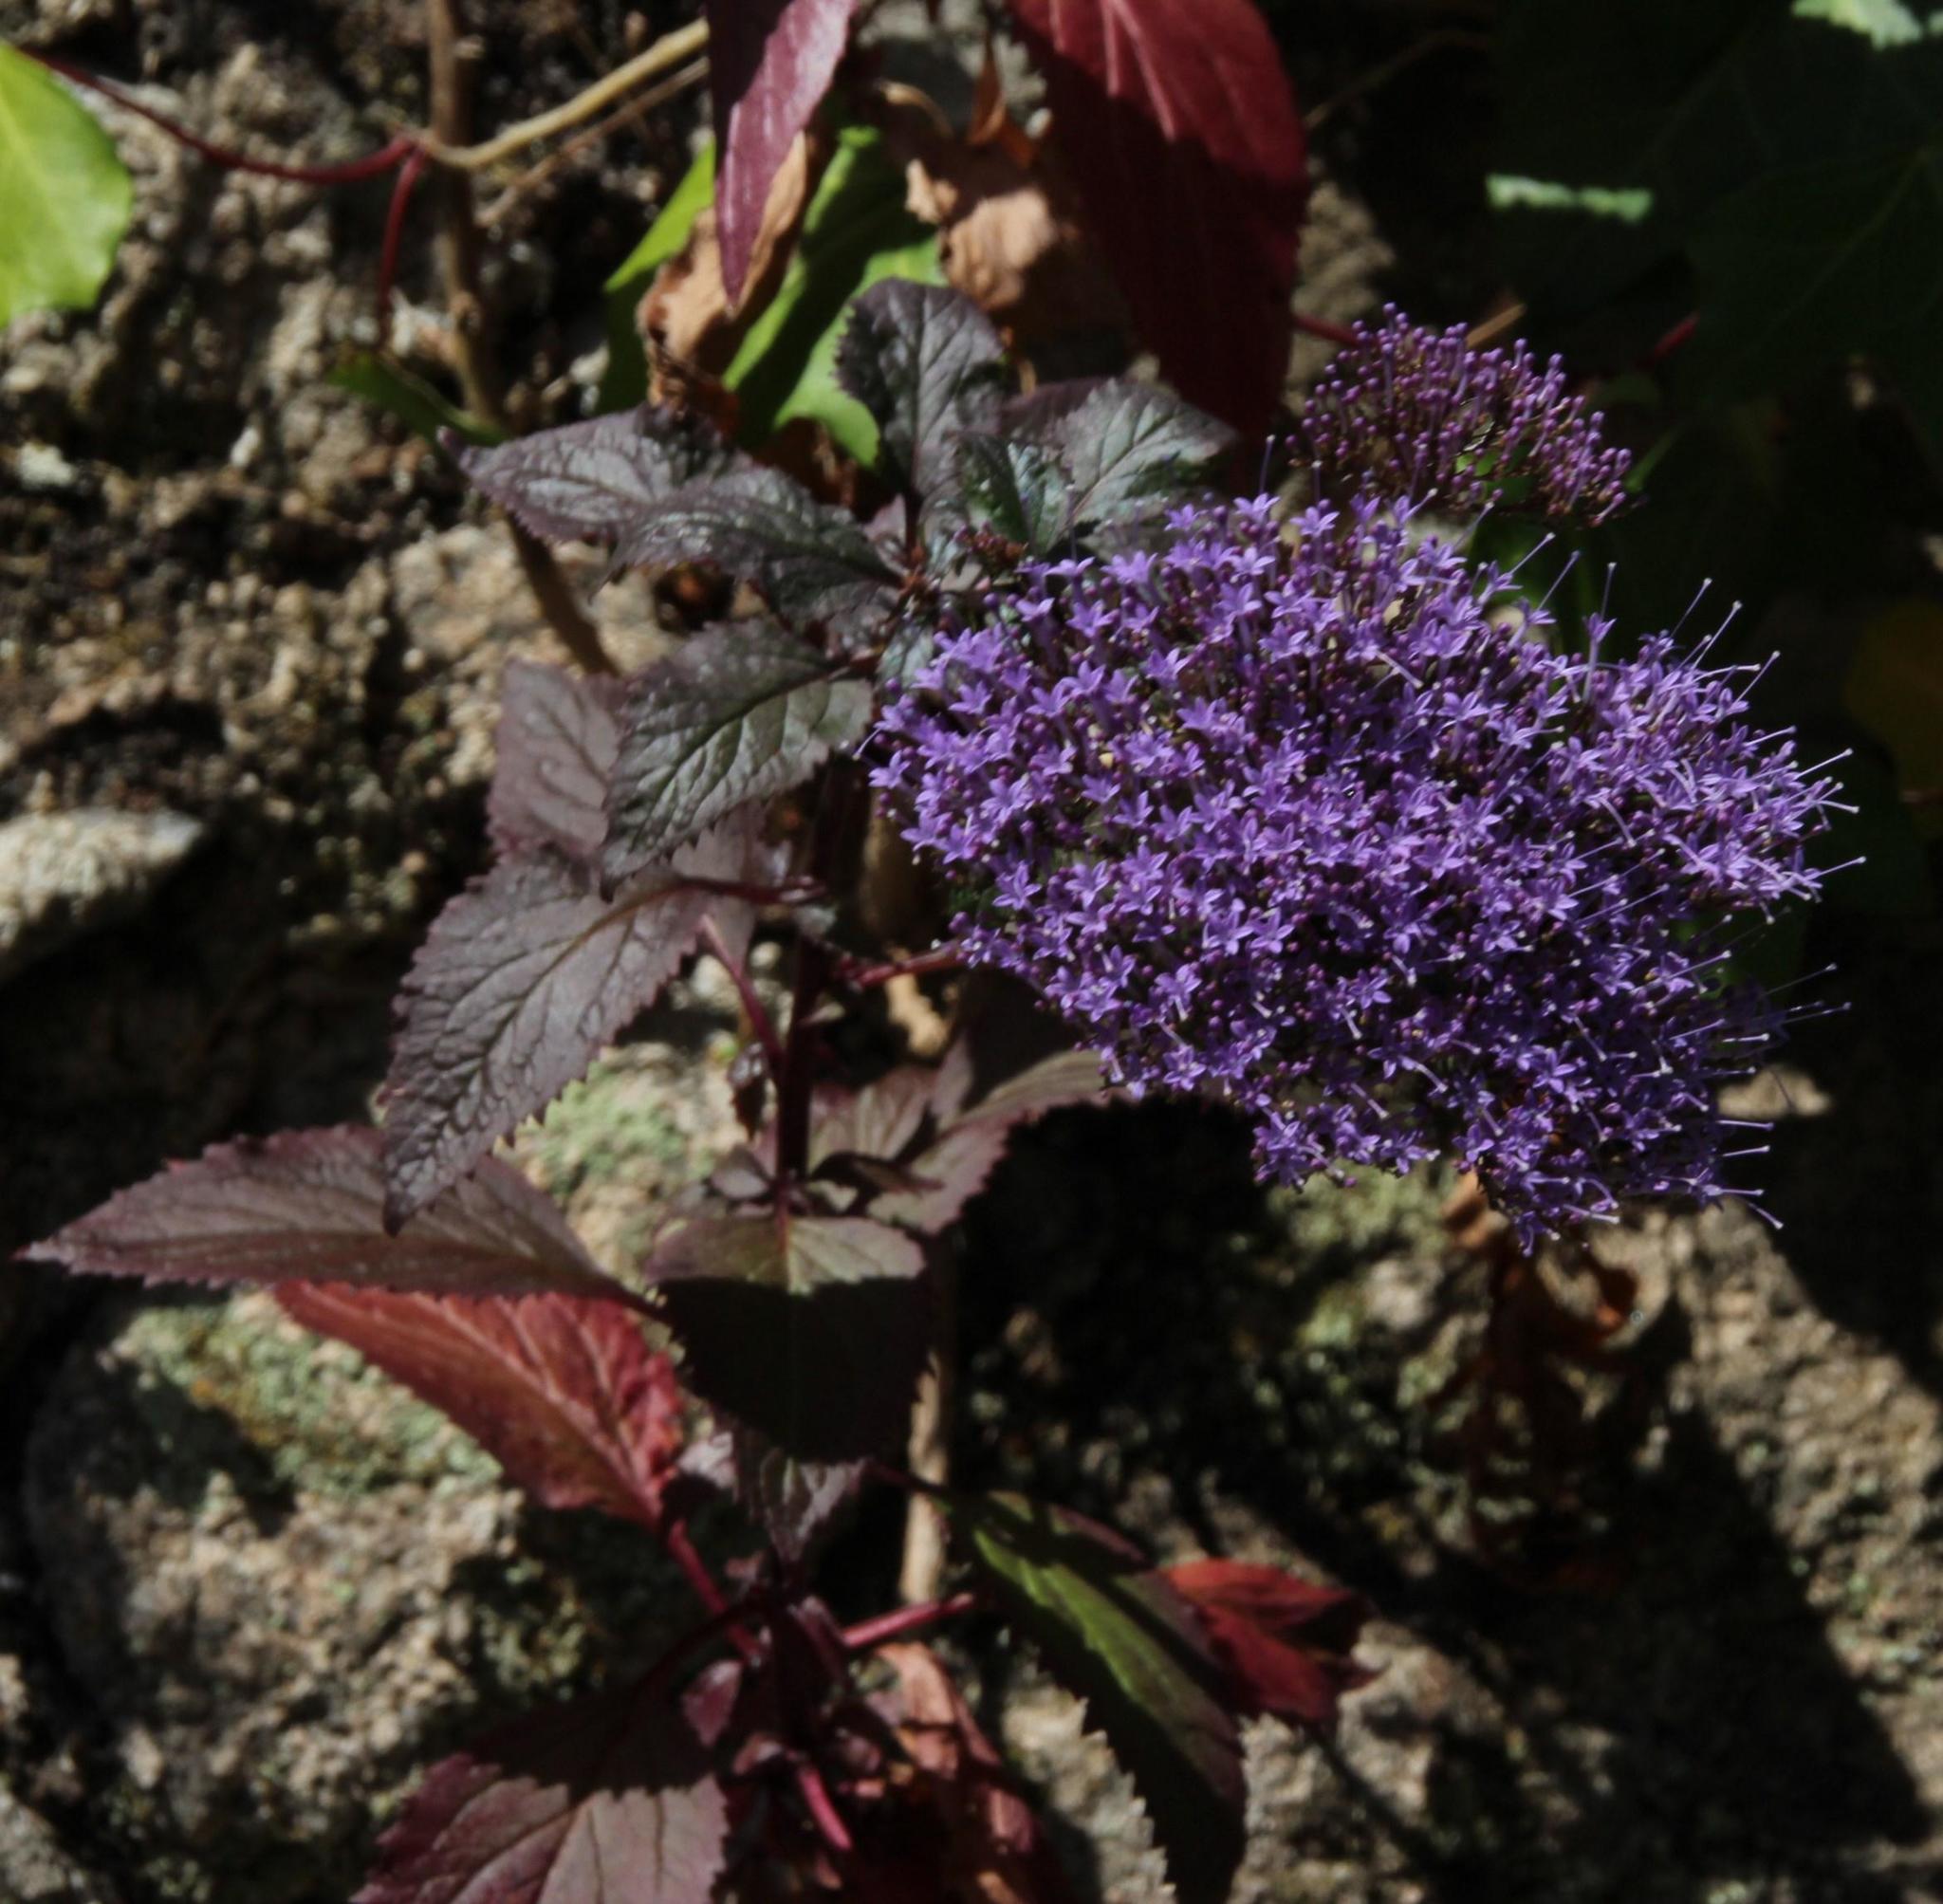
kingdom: Plantae
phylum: Tracheophyta
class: Magnoliopsida
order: Asterales
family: Campanulaceae
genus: Trachelium
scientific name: Trachelium caeruleum
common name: Throatwort
